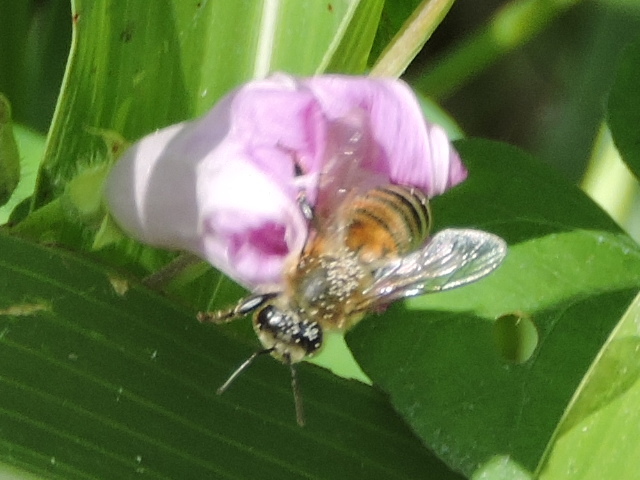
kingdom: Animalia
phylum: Arthropoda
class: Insecta
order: Hymenoptera
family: Apidae
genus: Apis
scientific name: Apis mellifera
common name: Honey bee
